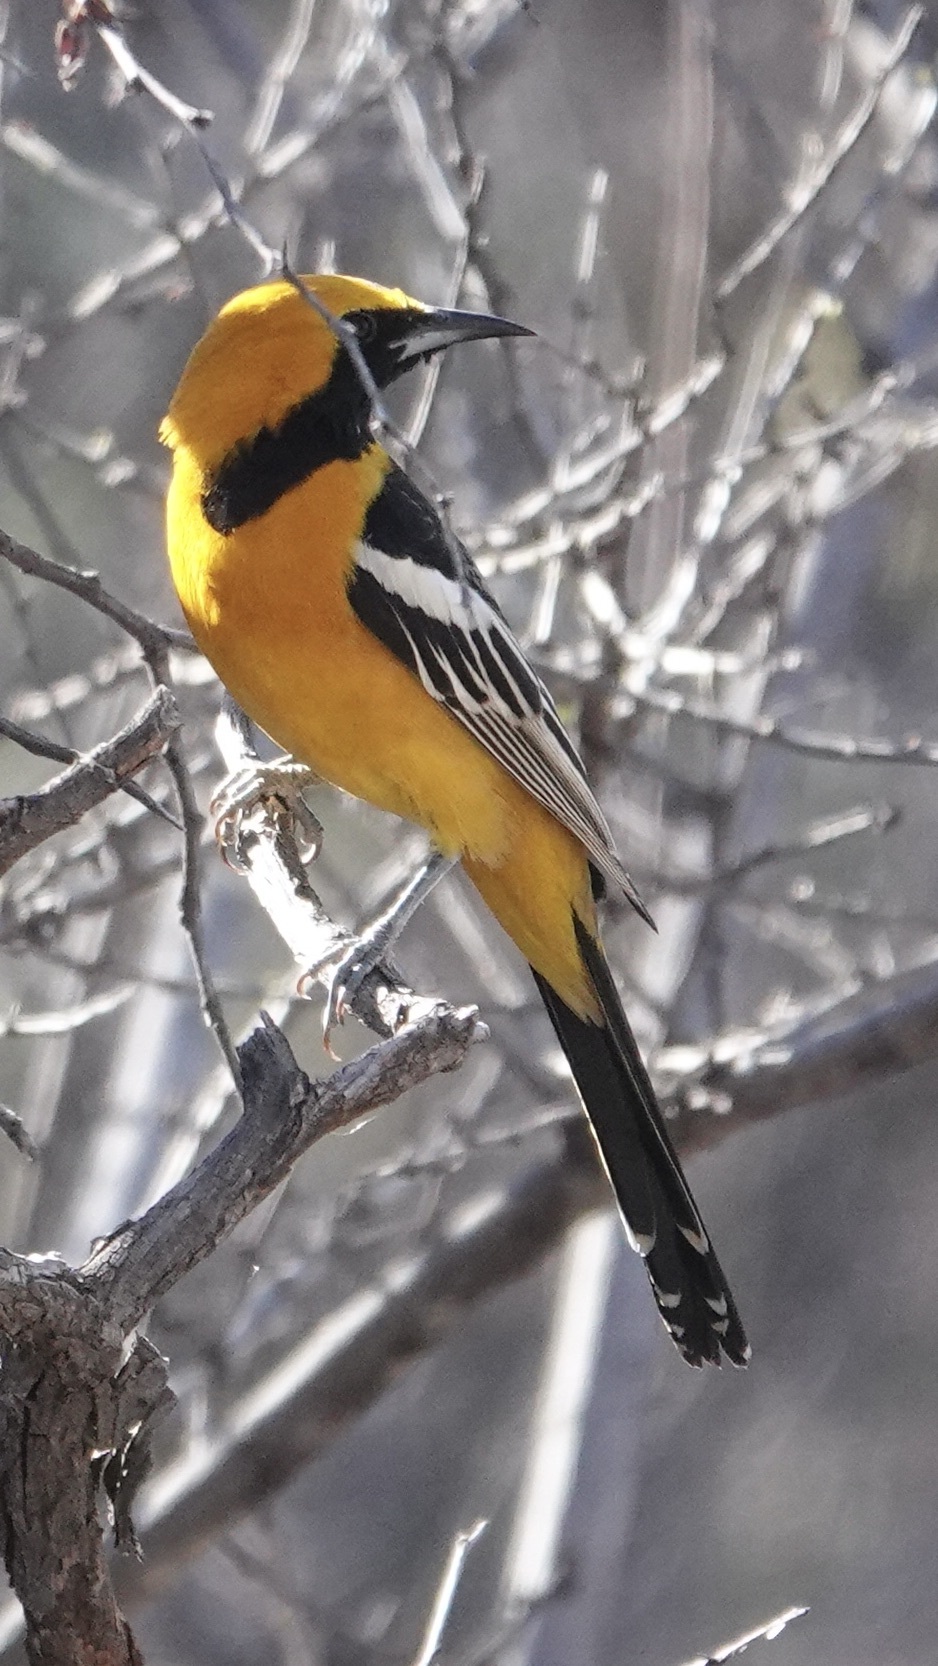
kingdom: Animalia
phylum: Chordata
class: Aves
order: Passeriformes
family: Icteridae
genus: Icterus
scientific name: Icterus cucullatus
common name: Hooded oriole
